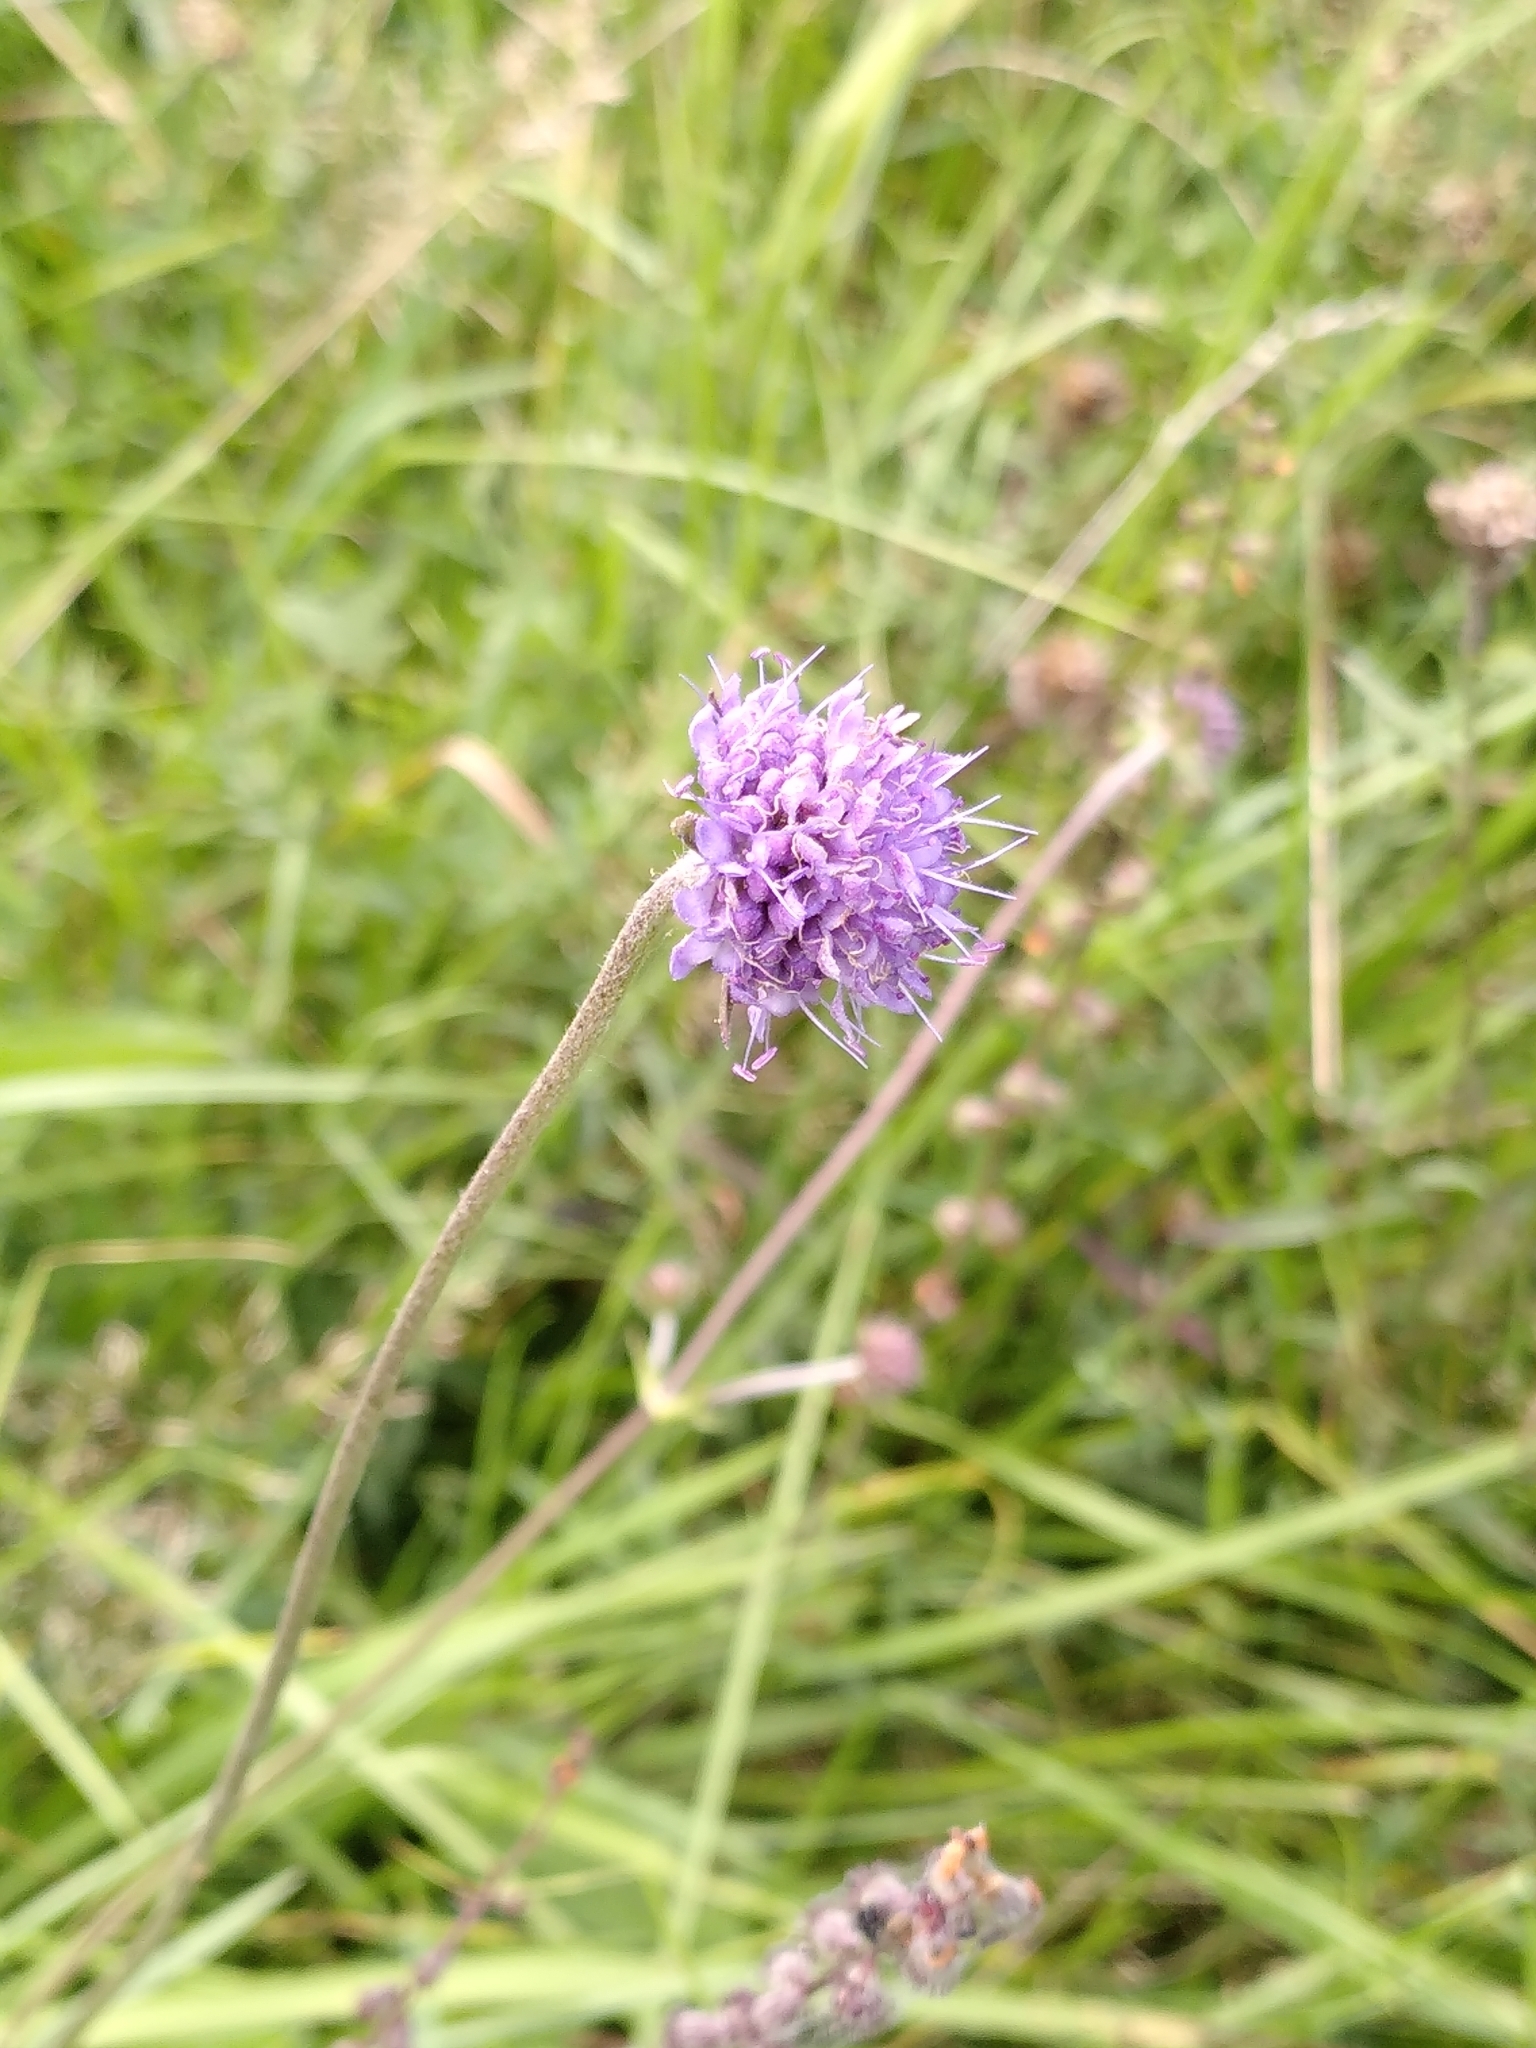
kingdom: Plantae
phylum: Tracheophyta
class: Magnoliopsida
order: Dipsacales
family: Caprifoliaceae
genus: Succisa
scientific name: Succisa pratensis
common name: Devil's-bit
